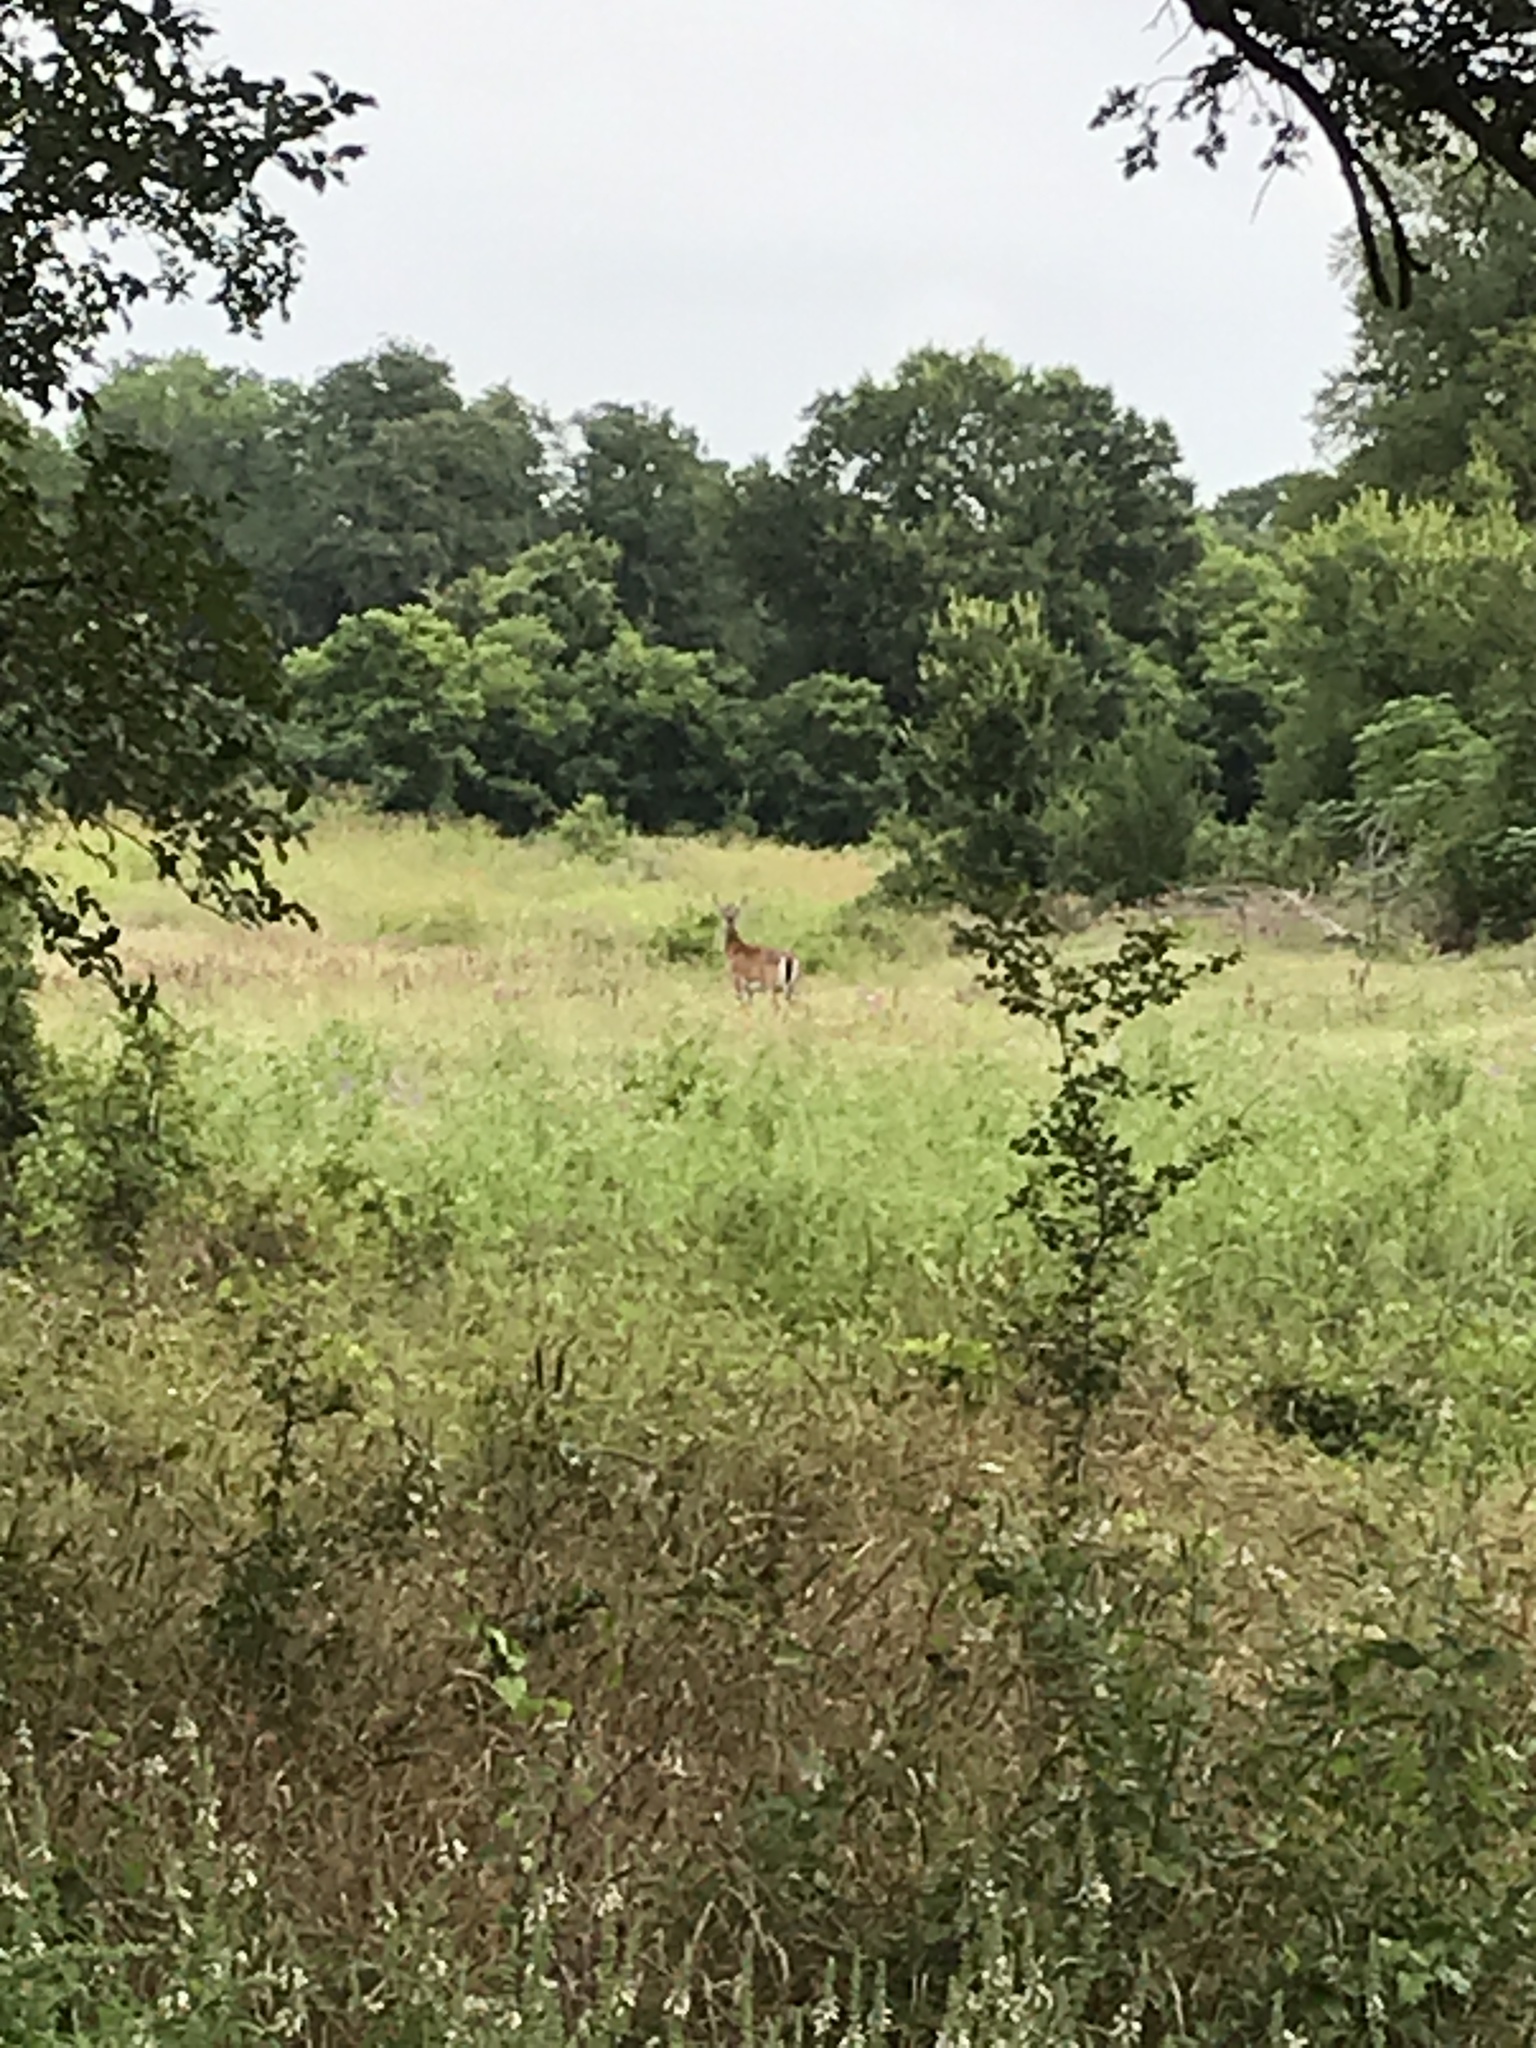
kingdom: Animalia
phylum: Chordata
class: Mammalia
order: Artiodactyla
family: Cervidae
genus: Odocoileus
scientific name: Odocoileus virginianus
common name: White-tailed deer
